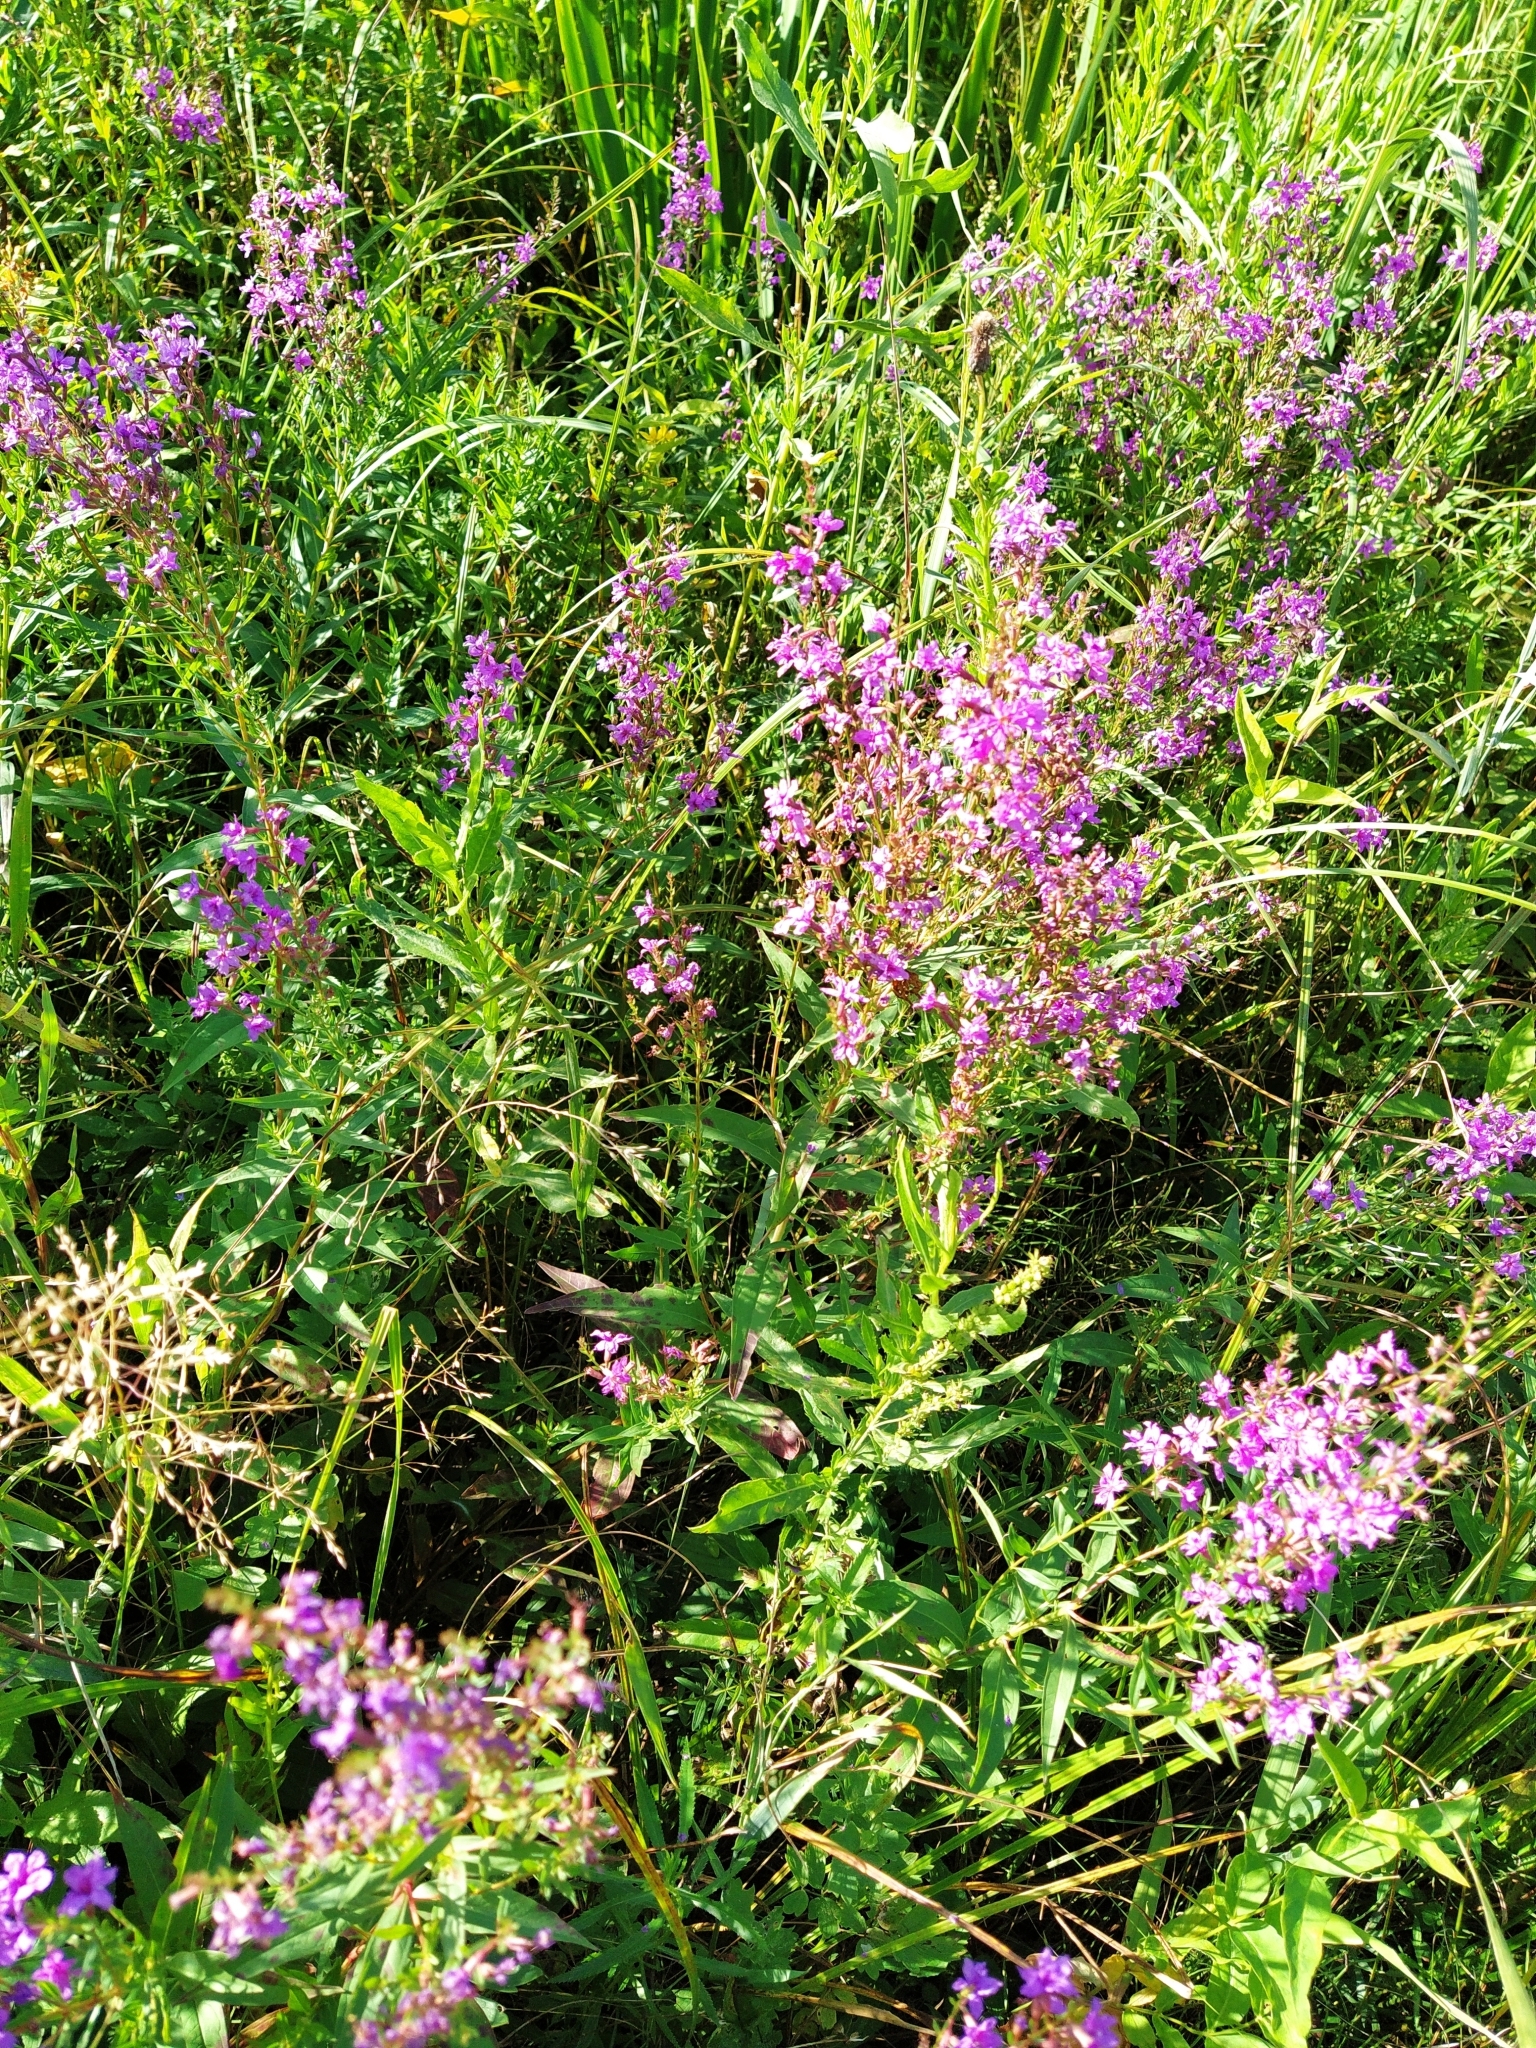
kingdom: Plantae
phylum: Tracheophyta
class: Magnoliopsida
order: Myrtales
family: Lythraceae
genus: Lythrum
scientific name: Lythrum salicaria
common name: Purple loosestrife
